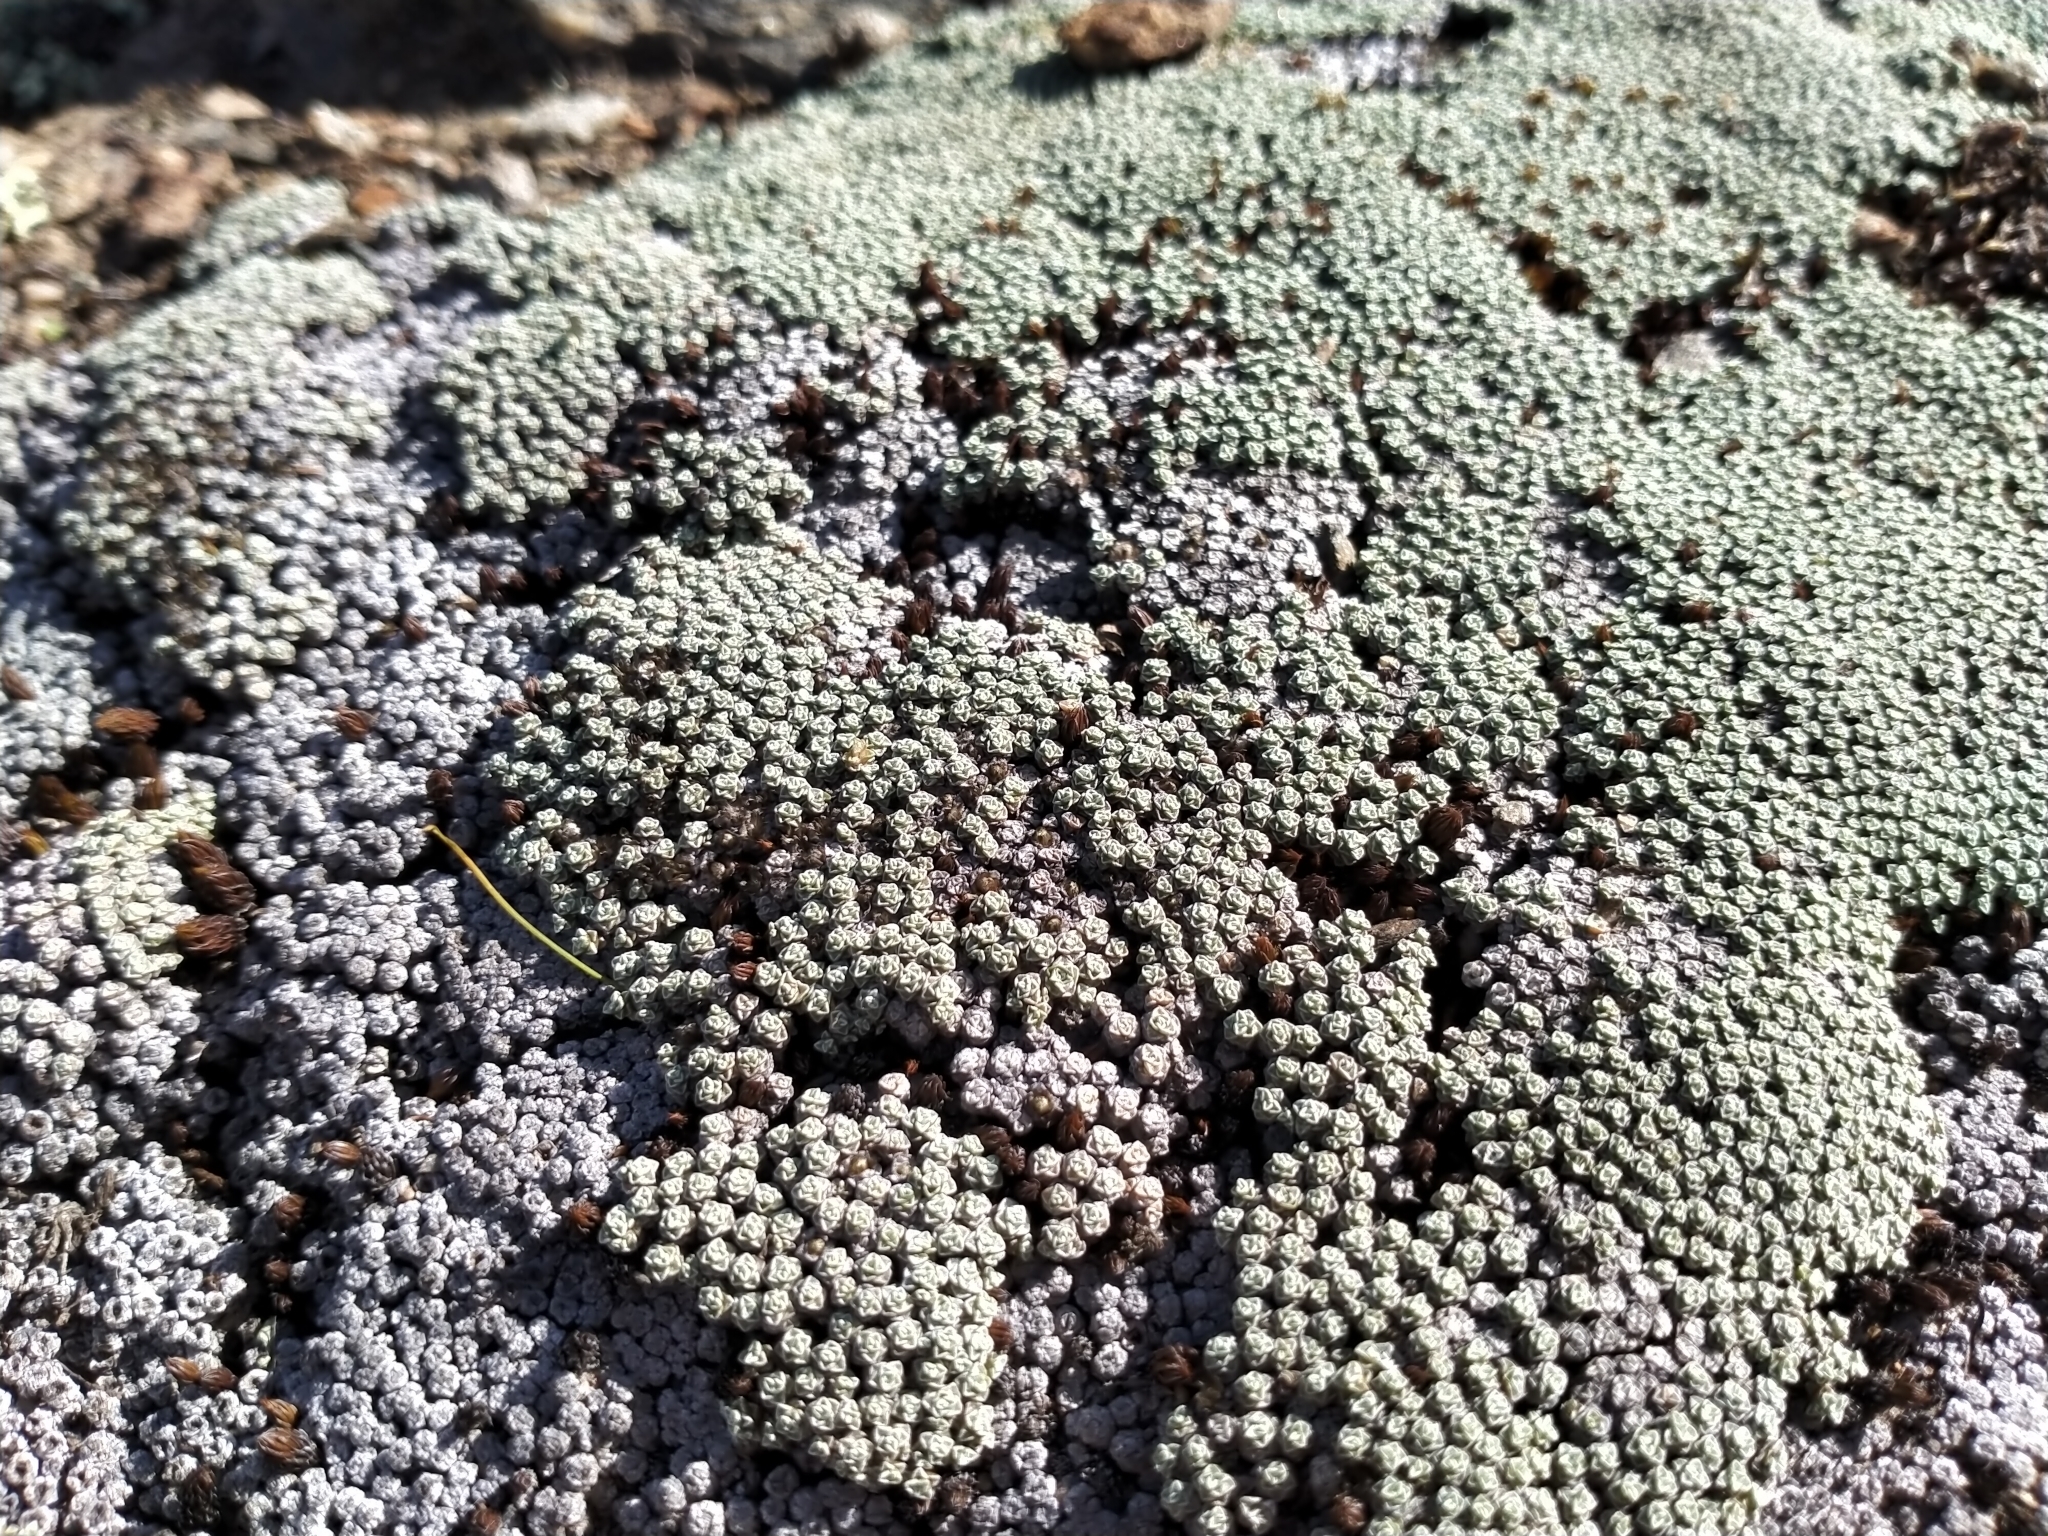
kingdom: Plantae
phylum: Tracheophyta
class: Magnoliopsida
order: Asterales
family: Asteraceae
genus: Raoulia
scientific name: Raoulia australis
